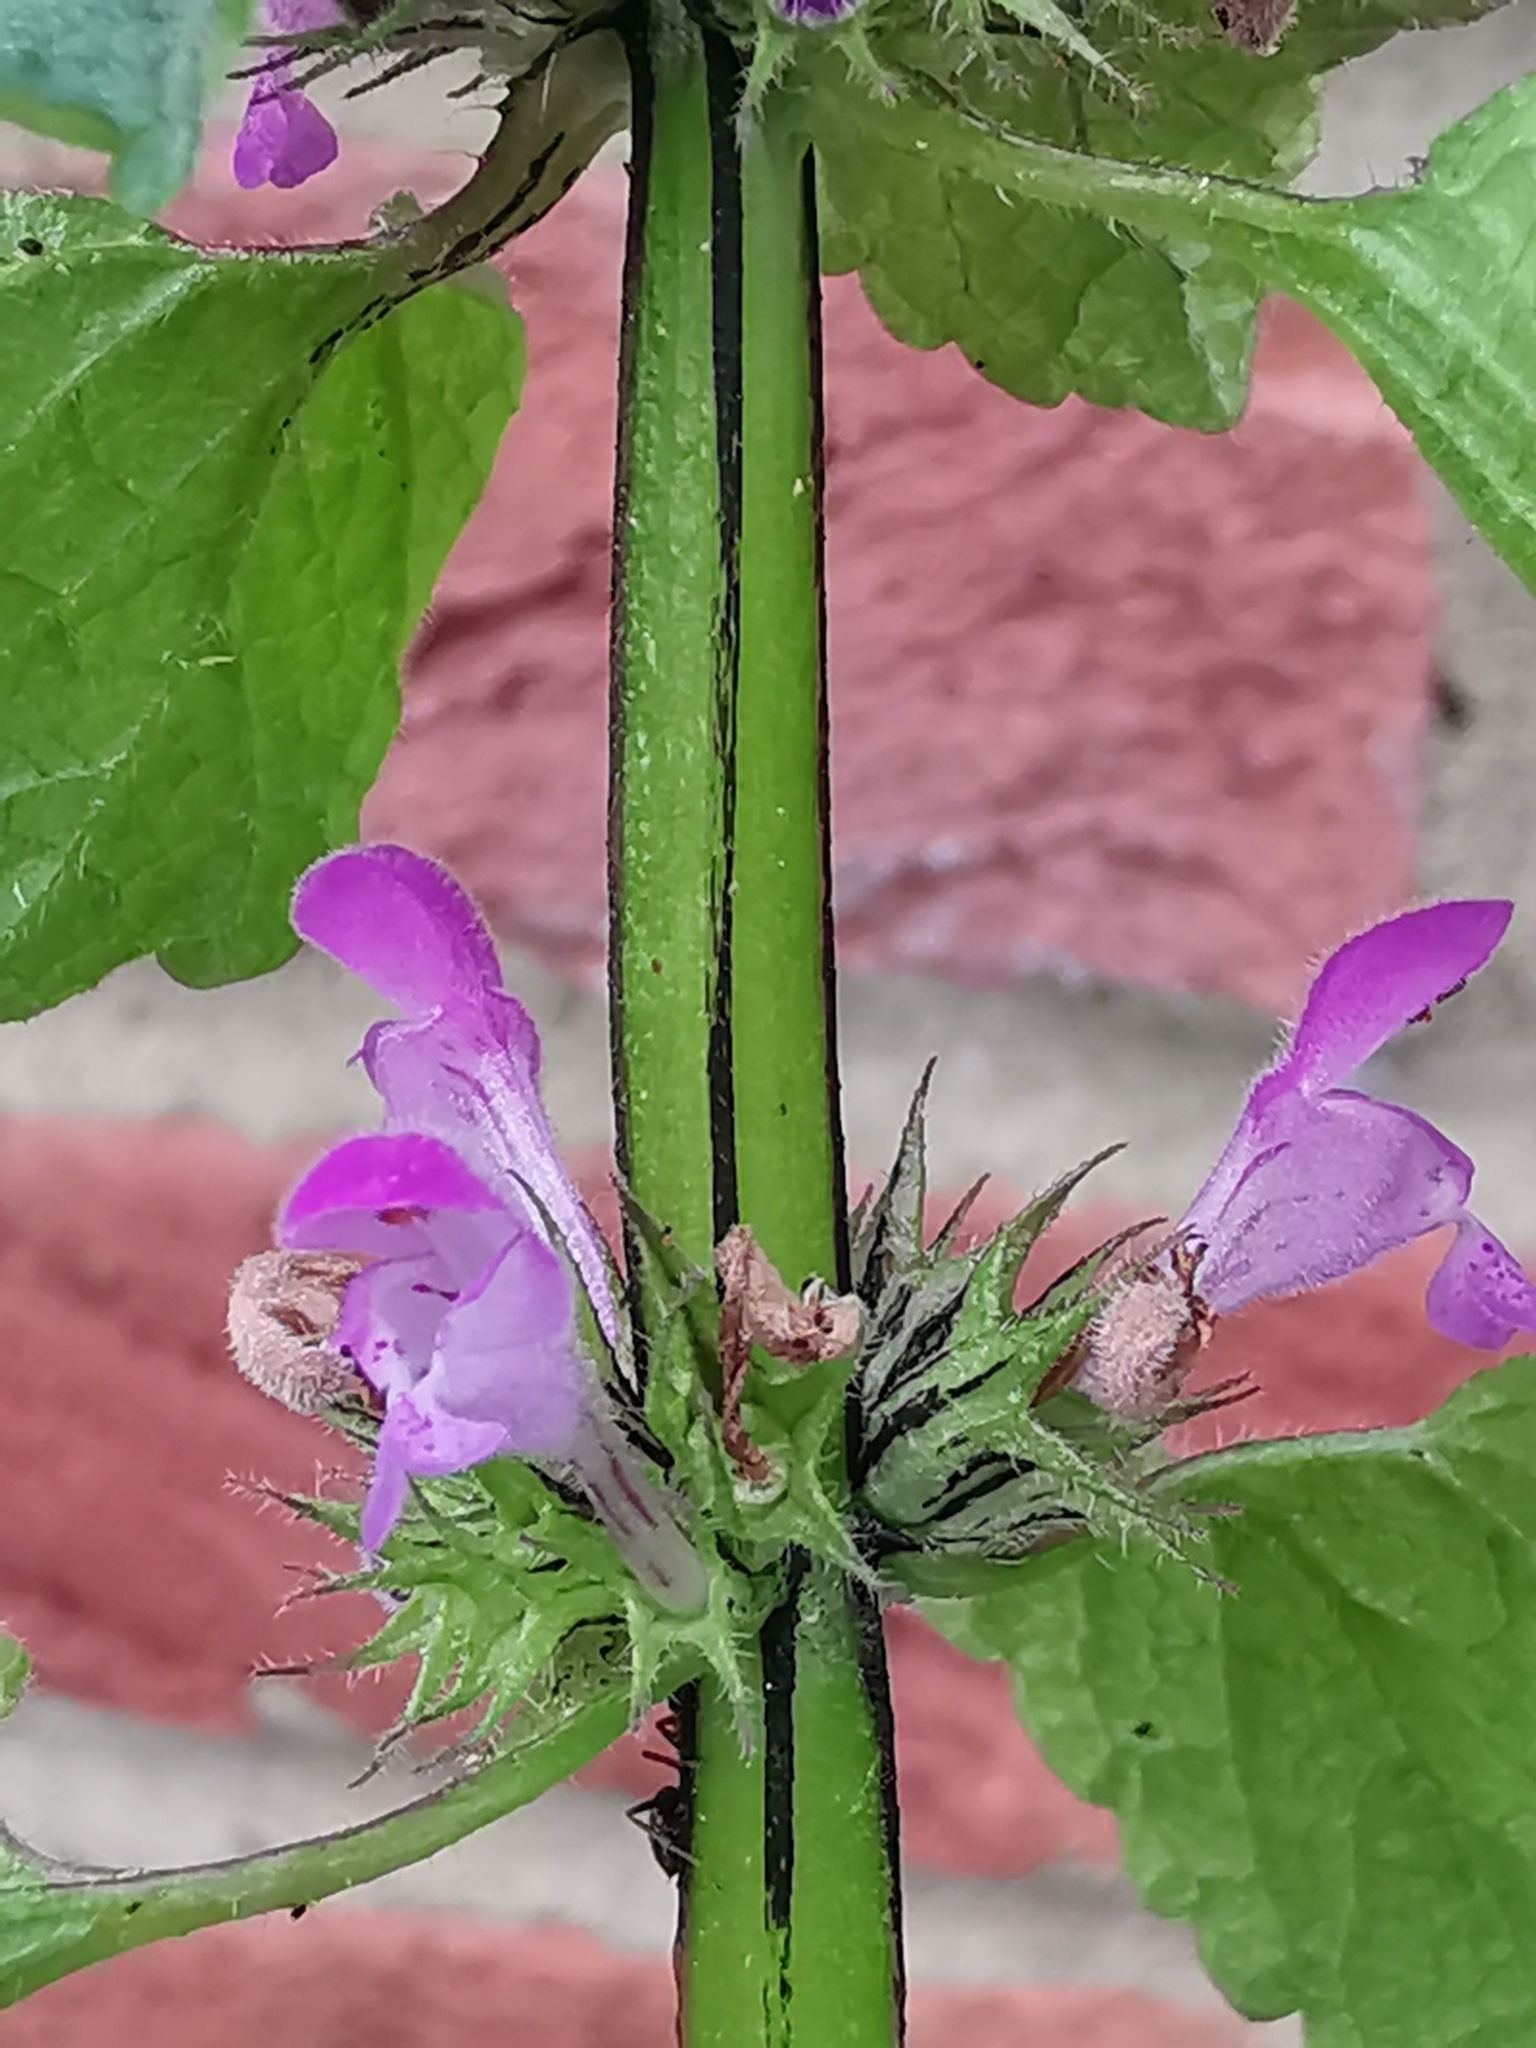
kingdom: Plantae
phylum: Tracheophyta
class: Magnoliopsida
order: Lamiales
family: Lamiaceae
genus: Lamium
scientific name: Lamium purpureum
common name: Red dead-nettle
